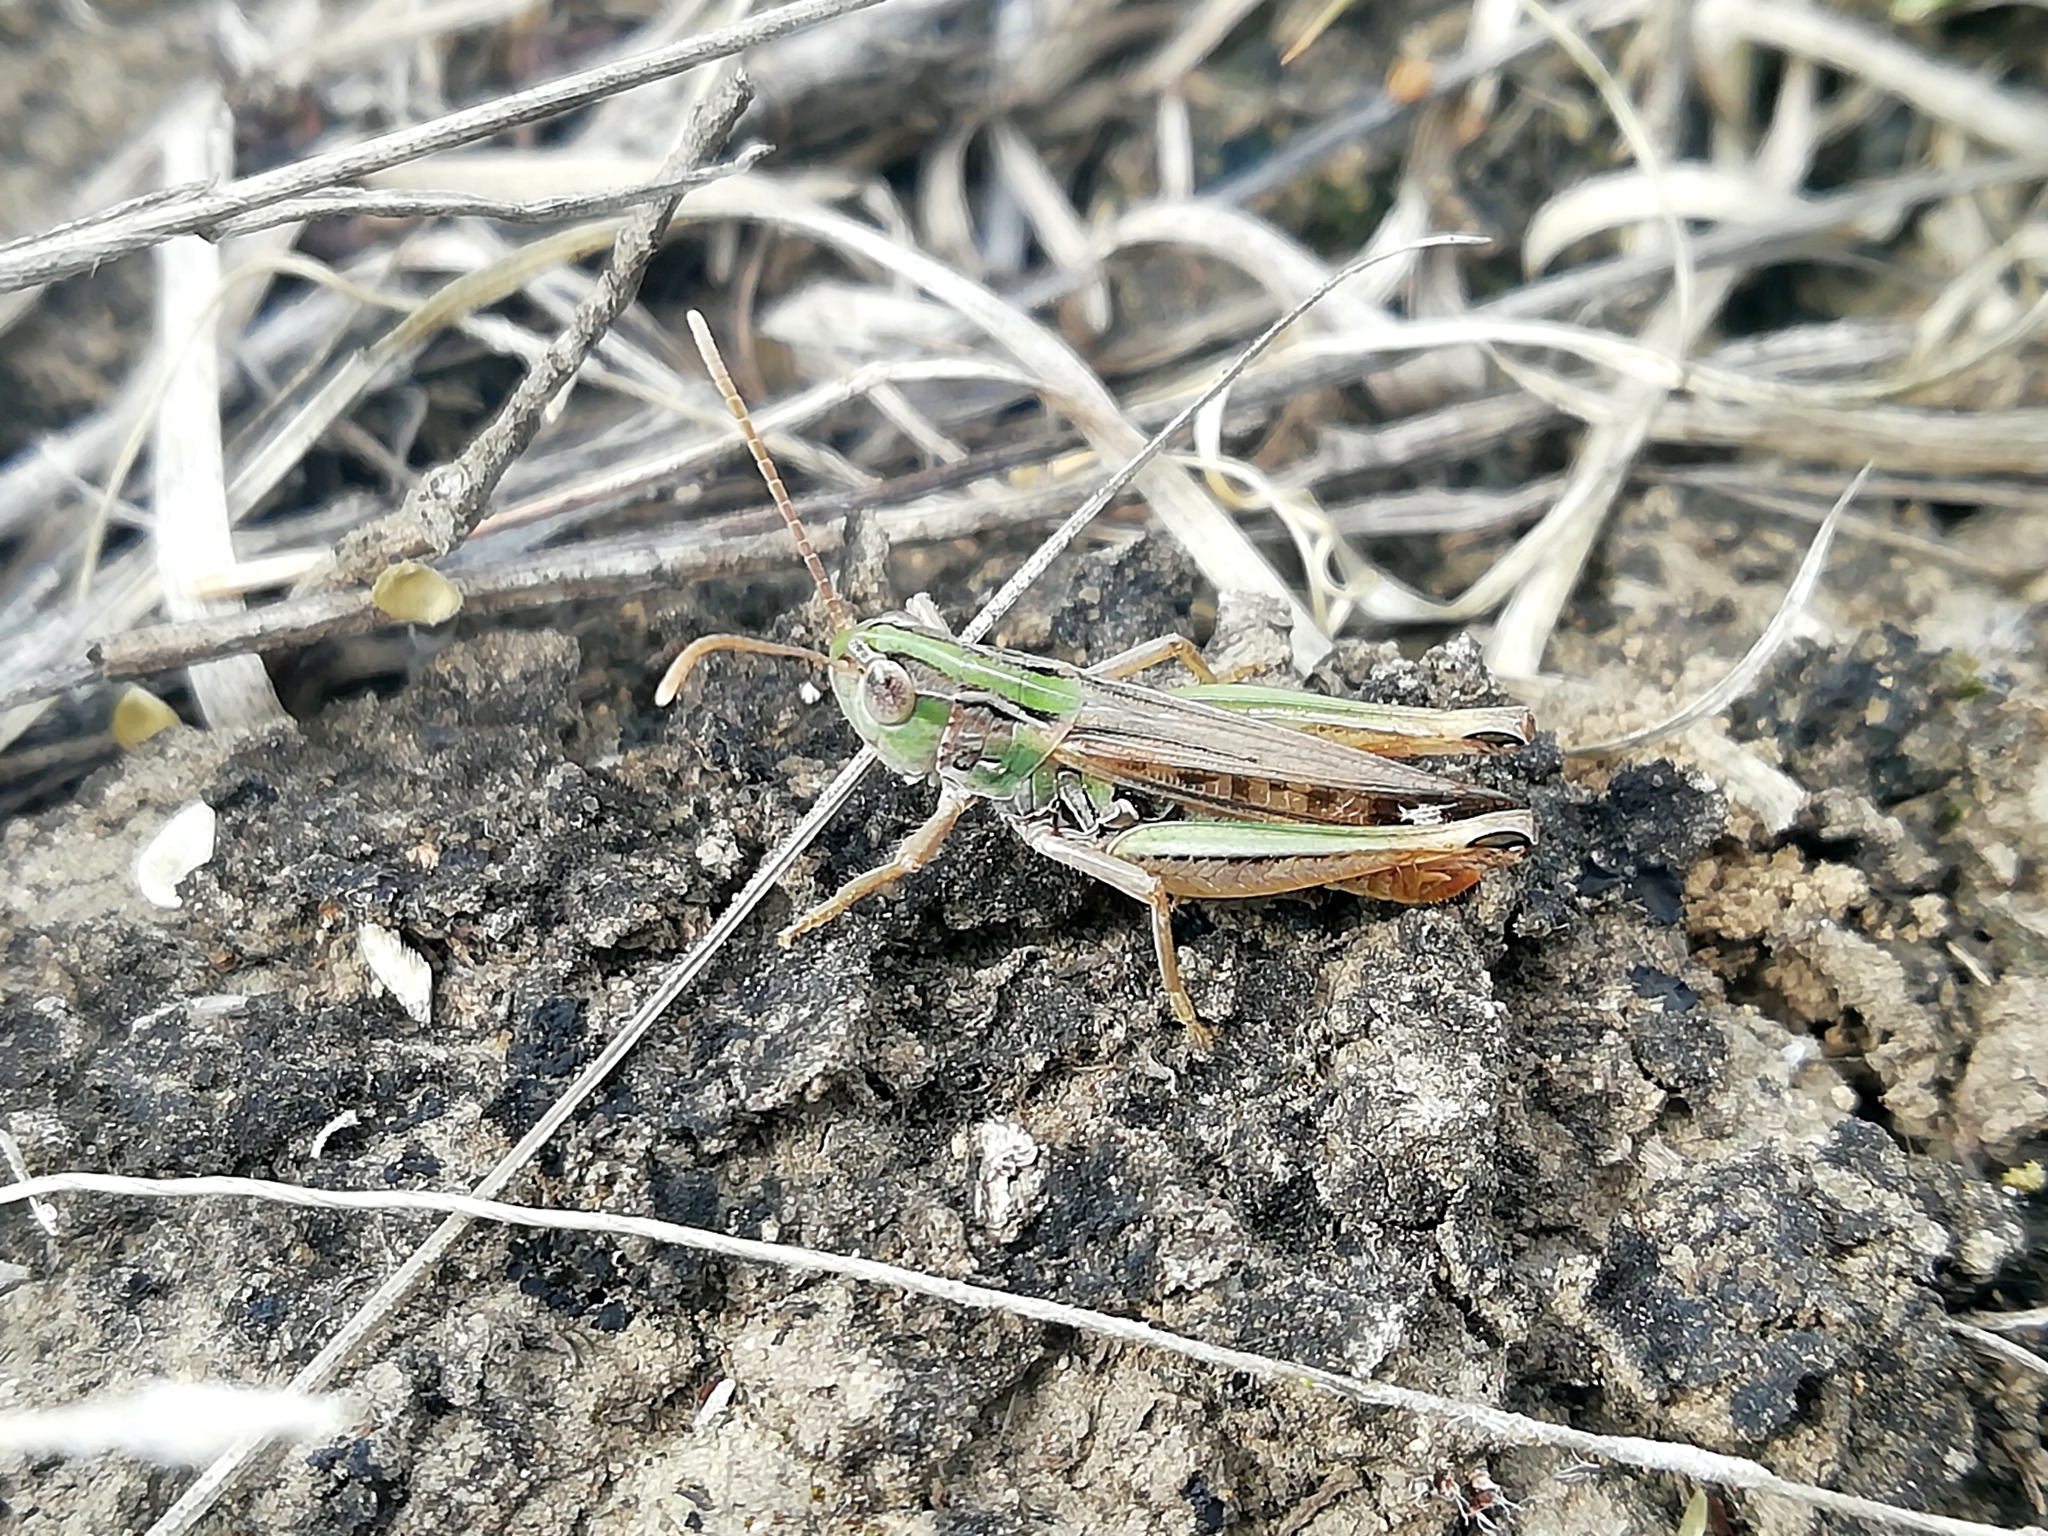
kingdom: Animalia
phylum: Arthropoda
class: Insecta
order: Orthoptera
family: Acrididae
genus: Stenobothrus
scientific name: Stenobothrus nigromaculatus
